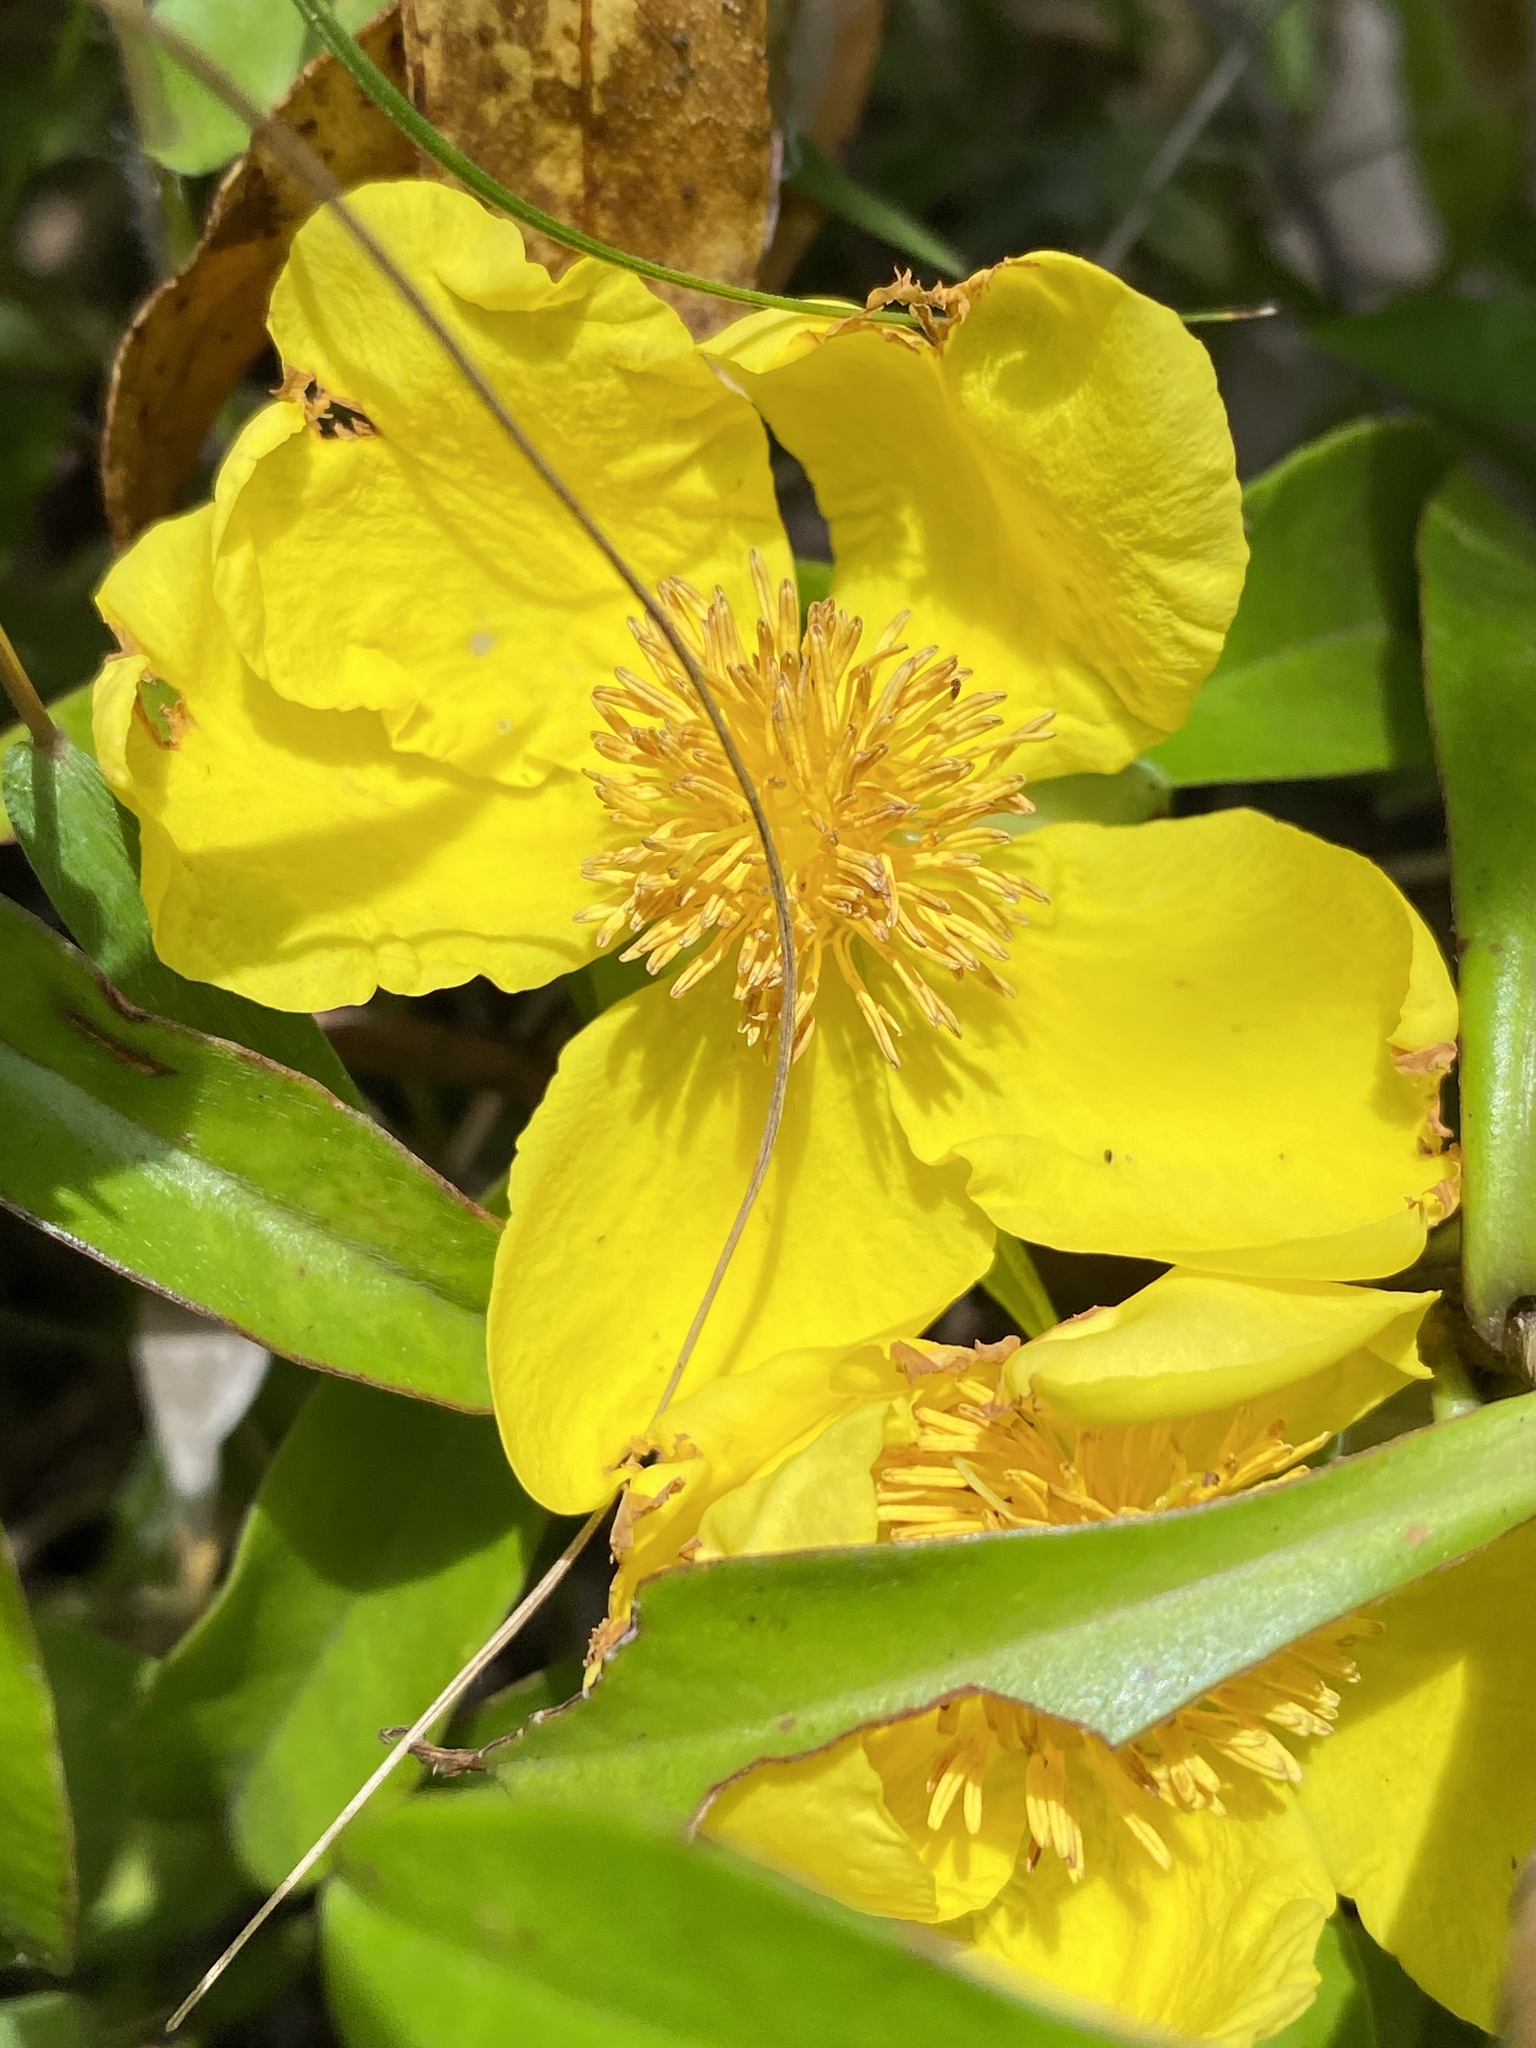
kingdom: Plantae
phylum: Tracheophyta
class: Magnoliopsida
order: Dilleniales
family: Dilleniaceae
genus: Hibbertia
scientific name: Hibbertia scandens
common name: Climbing guinea-flower
